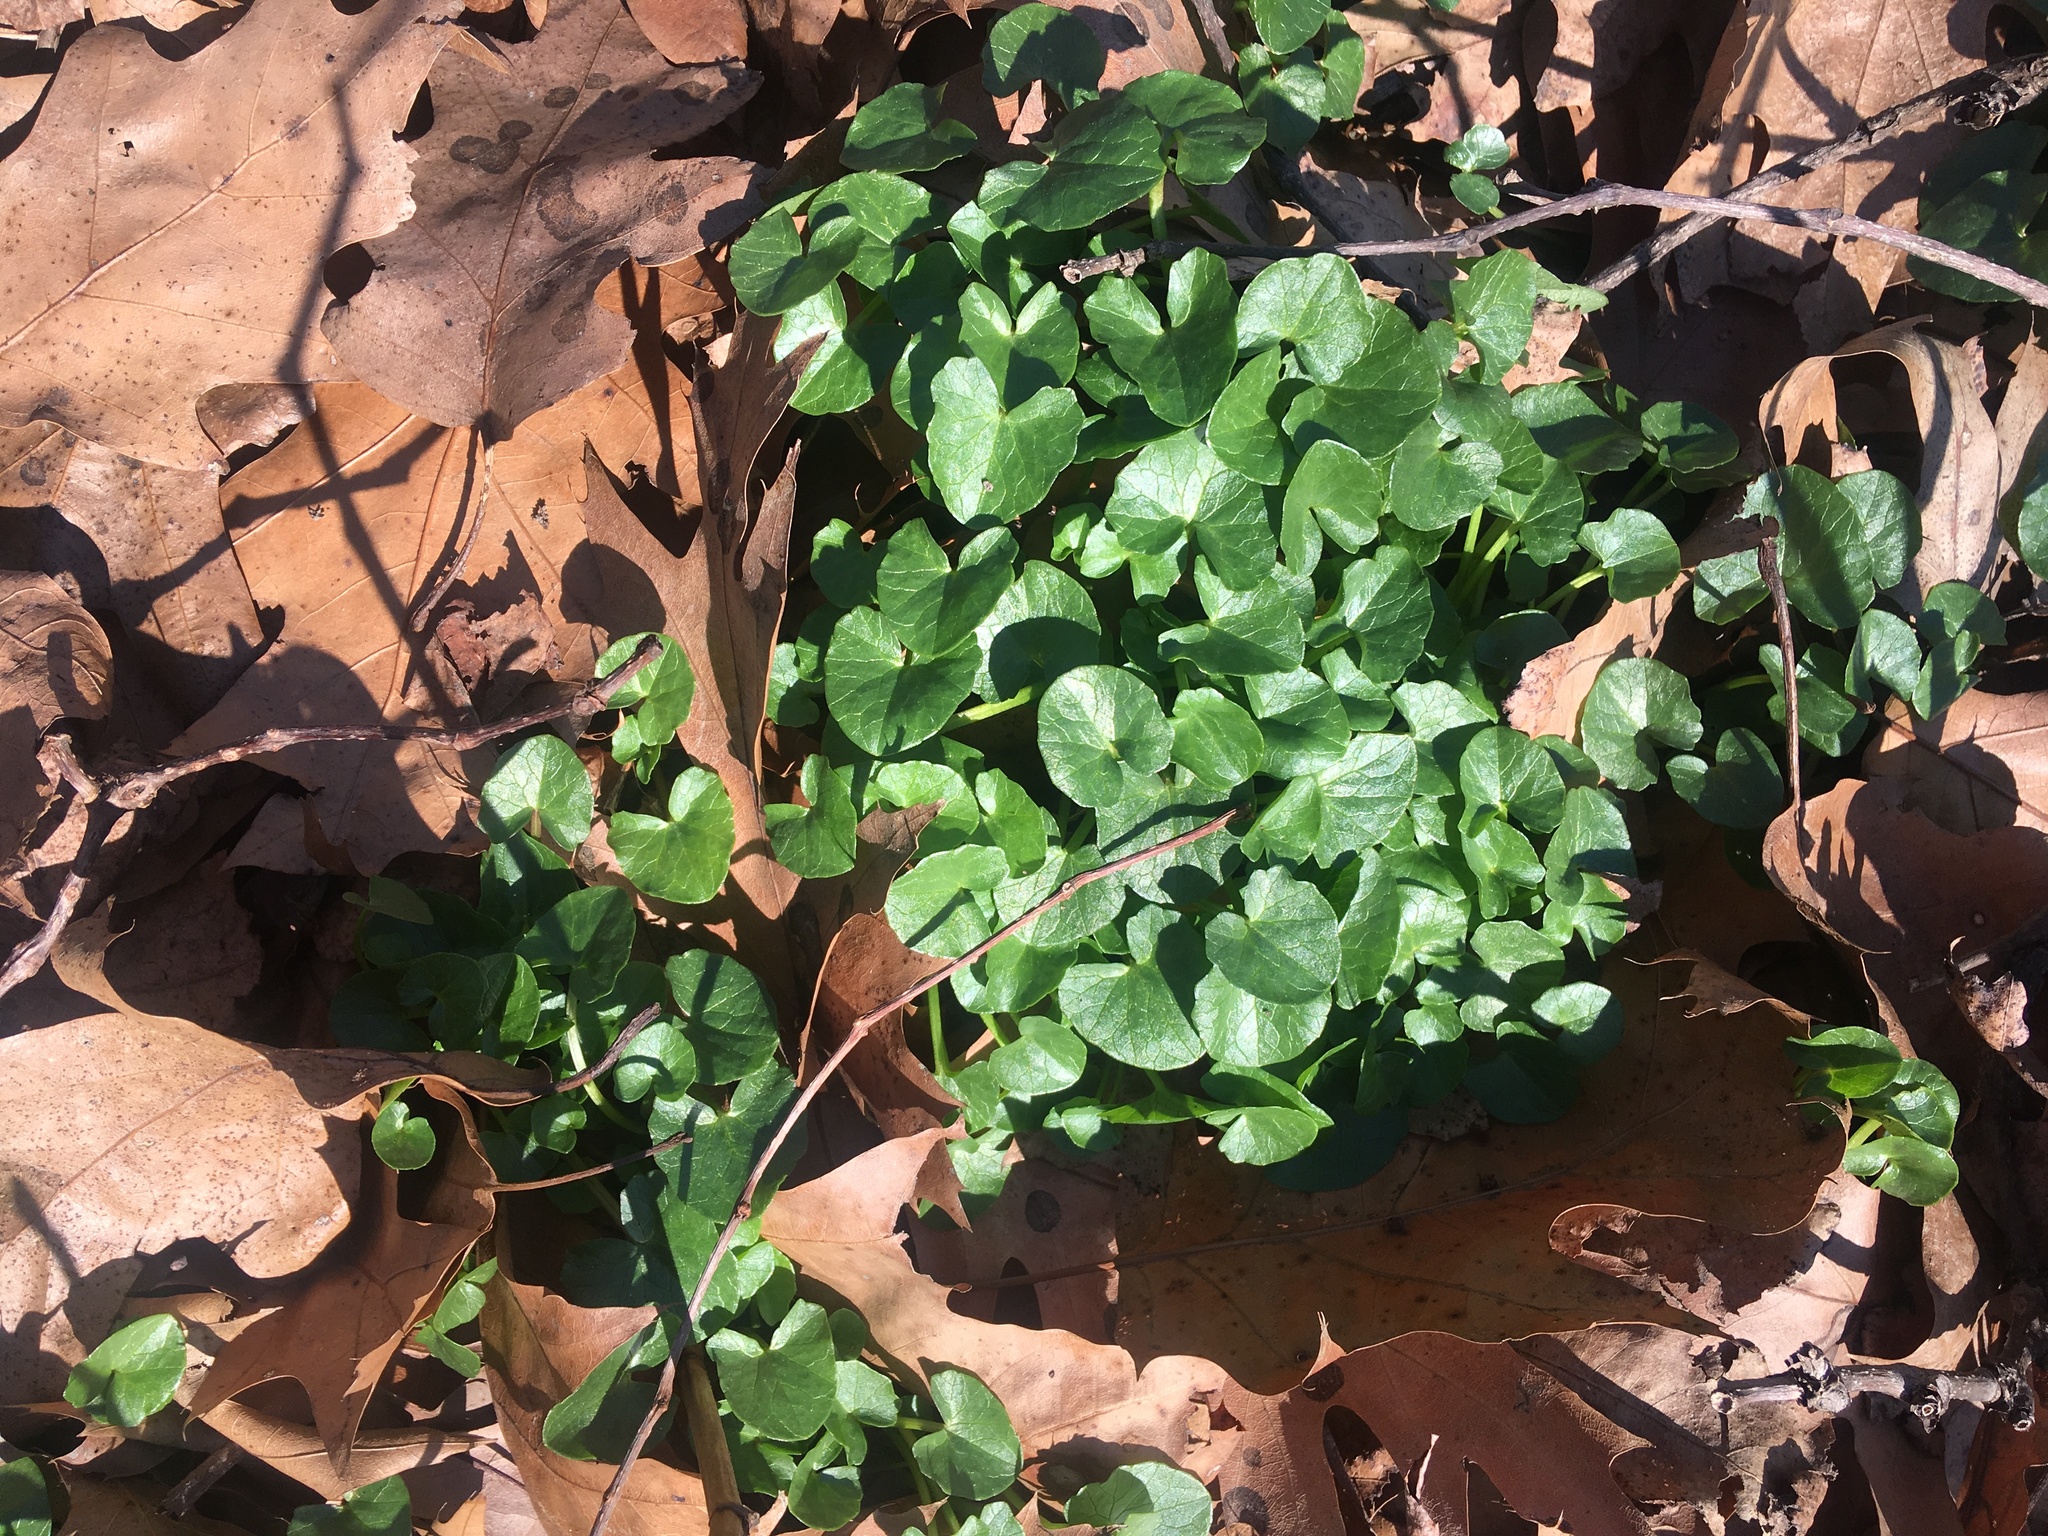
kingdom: Plantae
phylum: Tracheophyta
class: Magnoliopsida
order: Ranunculales
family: Ranunculaceae
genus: Ficaria
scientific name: Ficaria verna
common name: Lesser celandine
